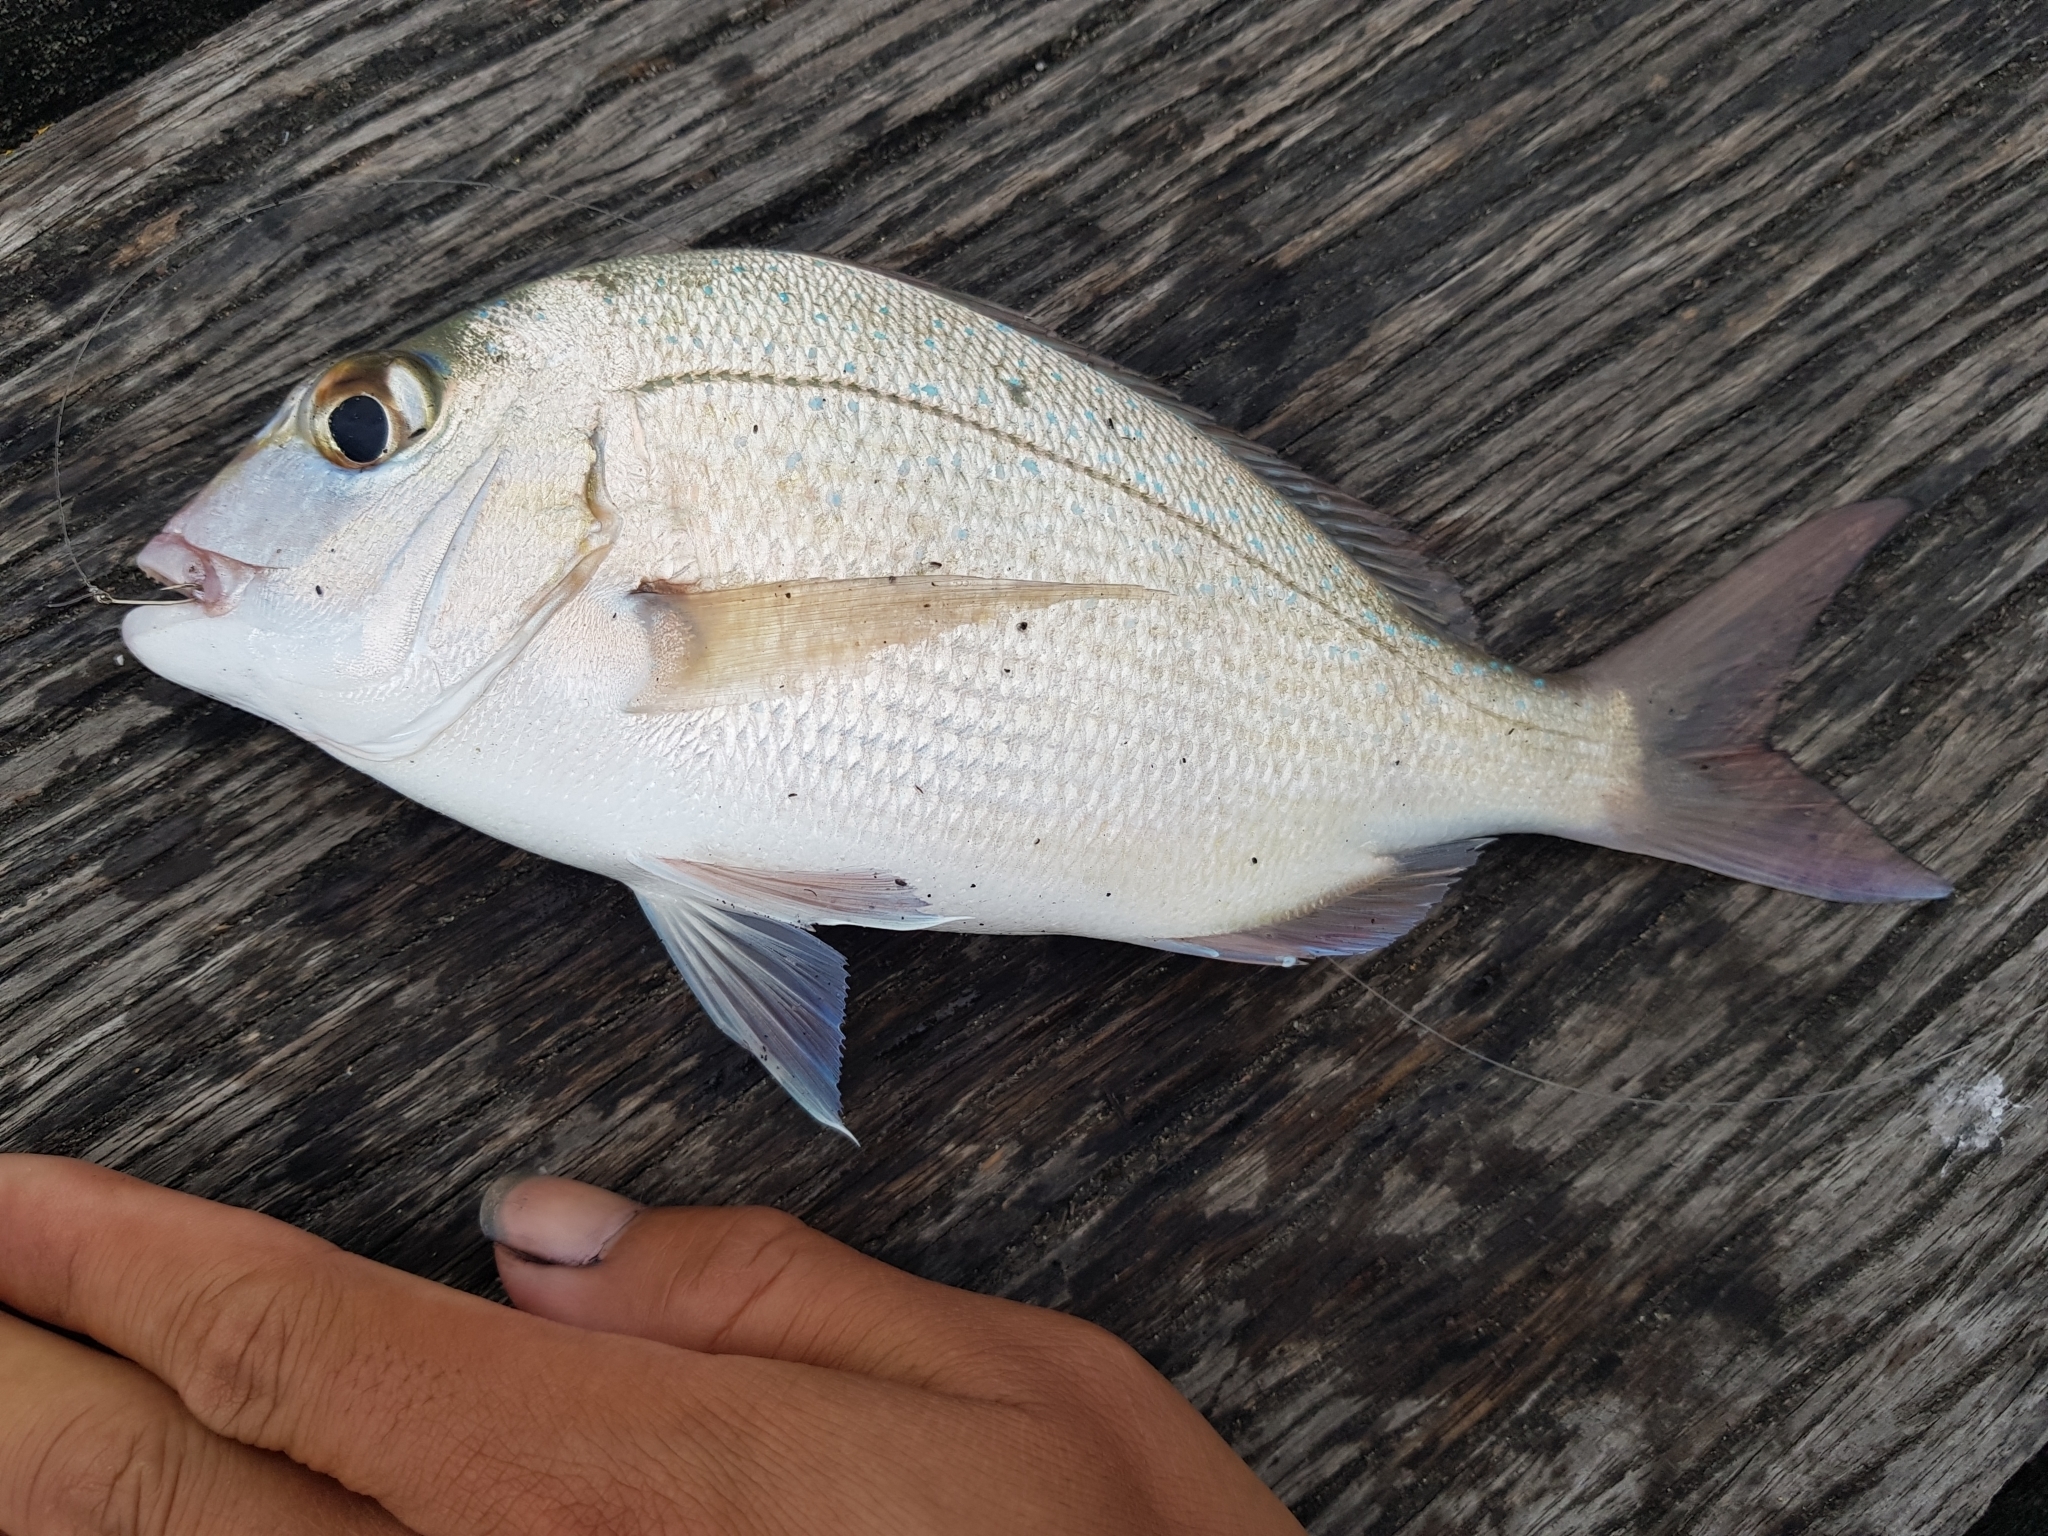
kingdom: Animalia
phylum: Chordata
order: Perciformes
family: Sparidae
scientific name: Sparidae
